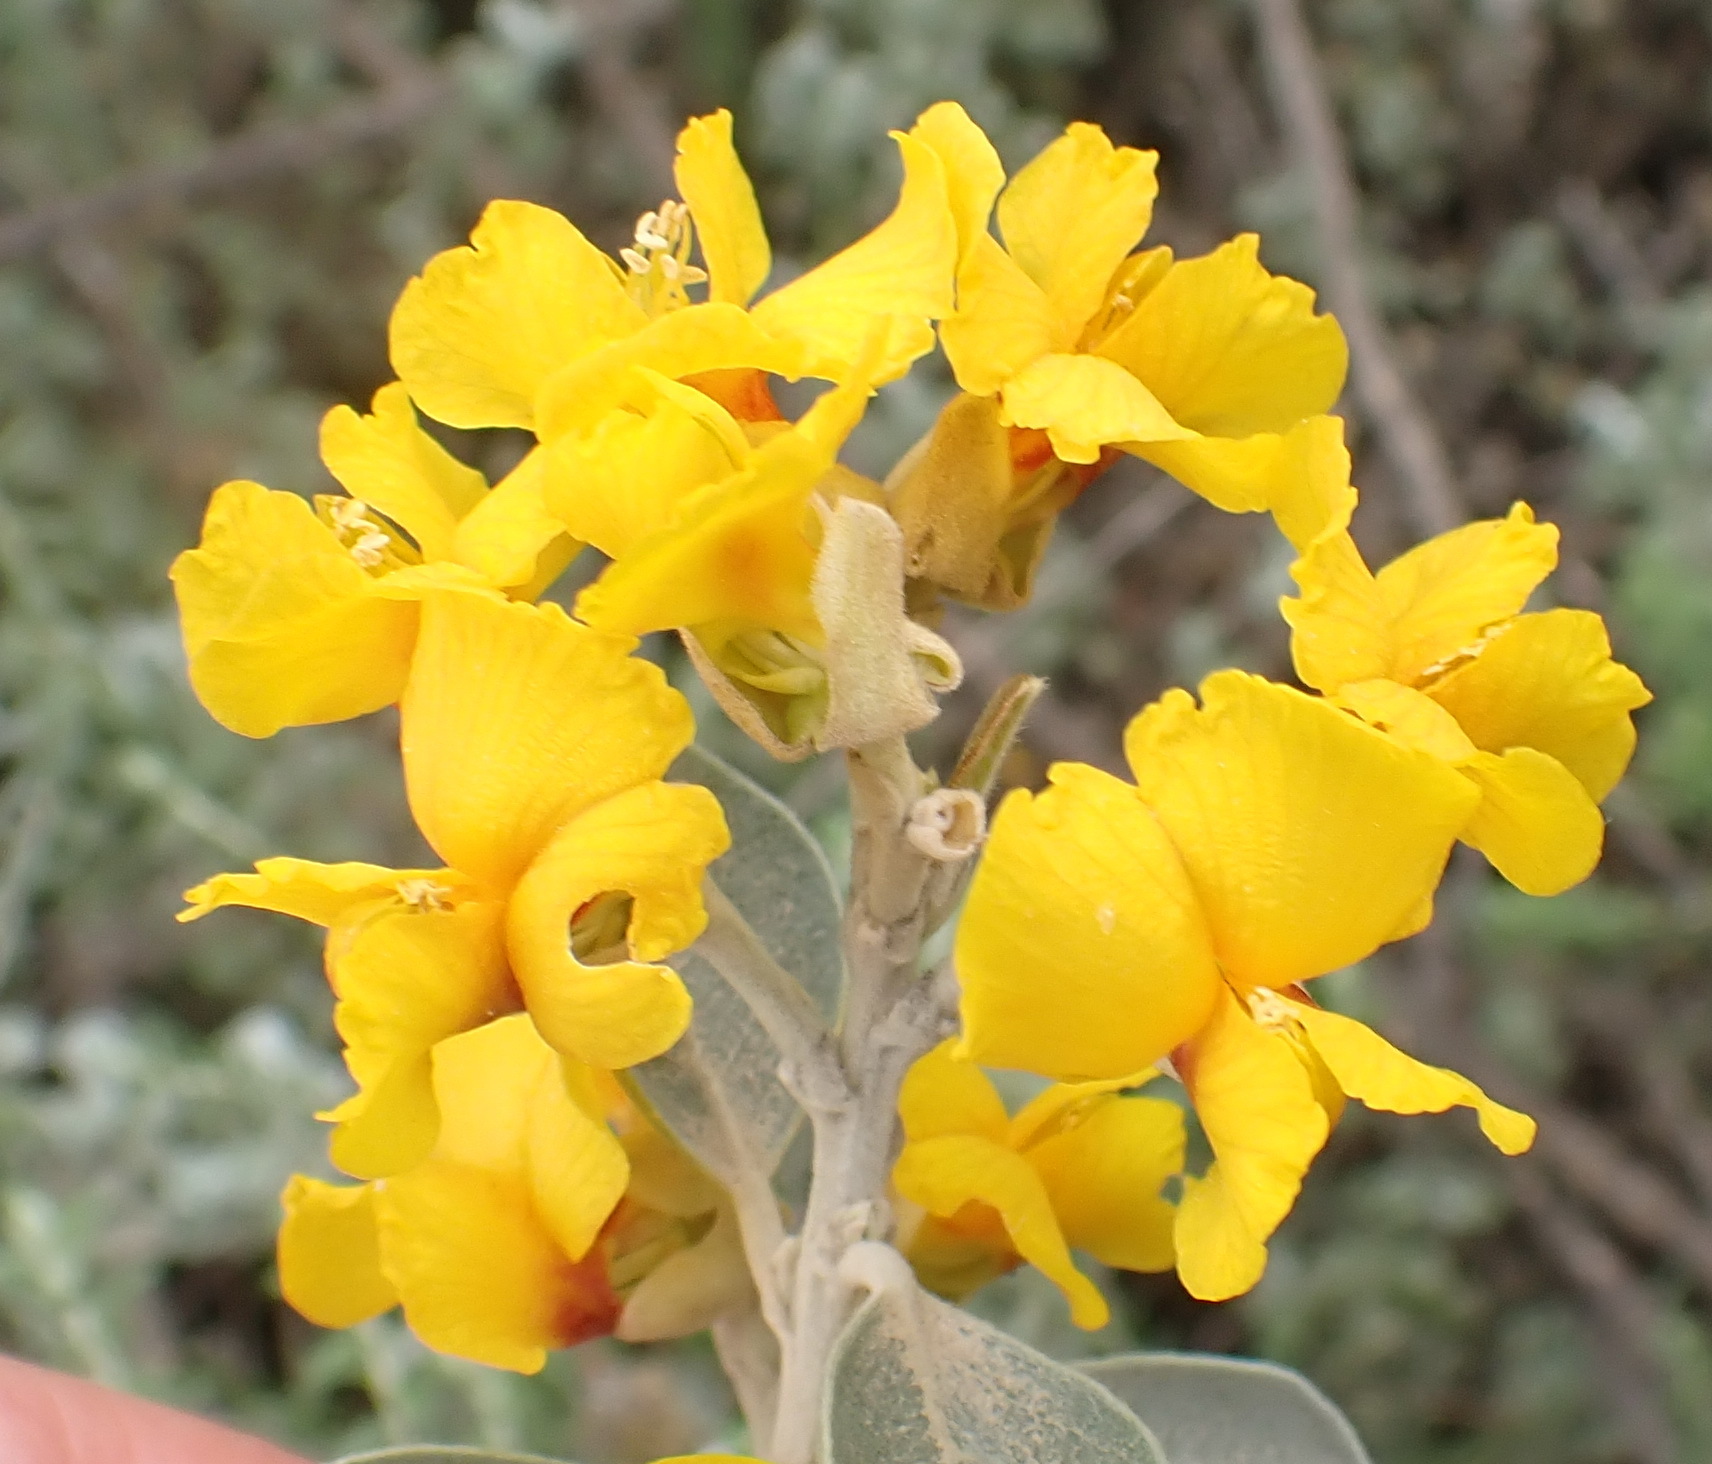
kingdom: Plantae
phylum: Tracheophyta
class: Magnoliopsida
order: Fabales
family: Fabaceae
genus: Stirtonanthus
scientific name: Stirtonanthus taylorianus
